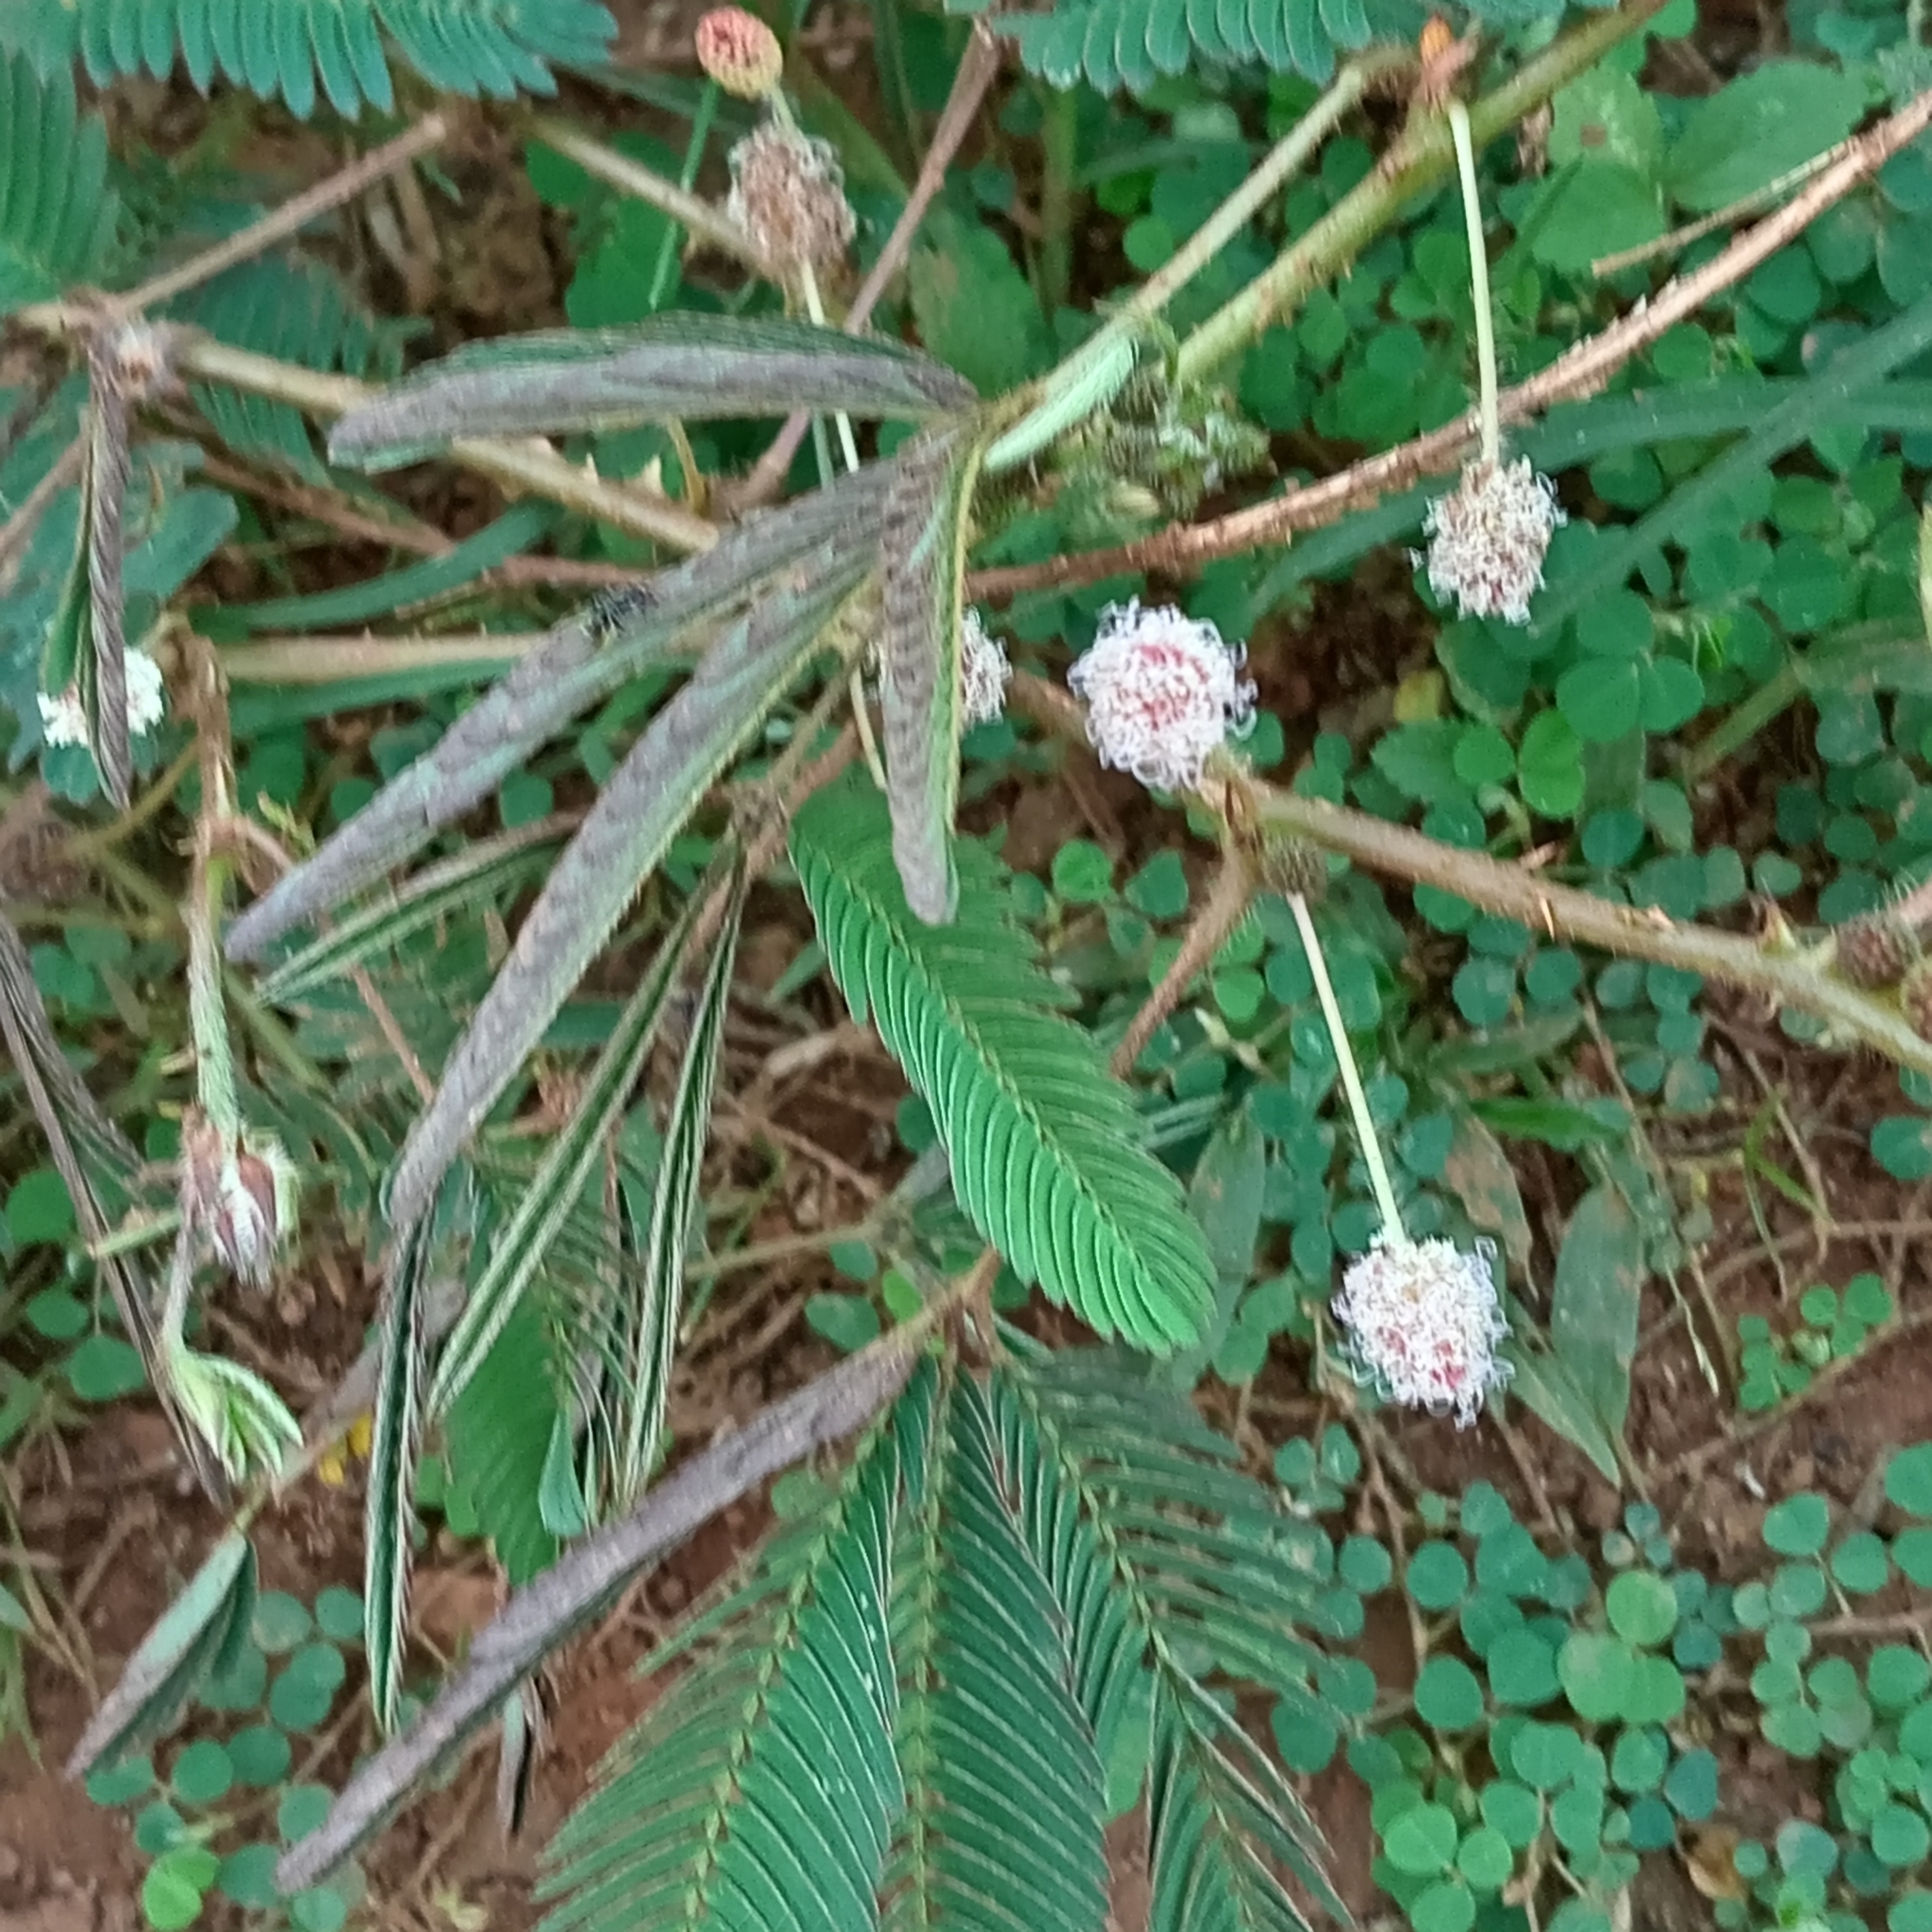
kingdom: Plantae
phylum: Tracheophyta
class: Magnoliopsida
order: Fabales
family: Fabaceae
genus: Mimosa
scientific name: Mimosa pudica
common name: Sensitive plant
